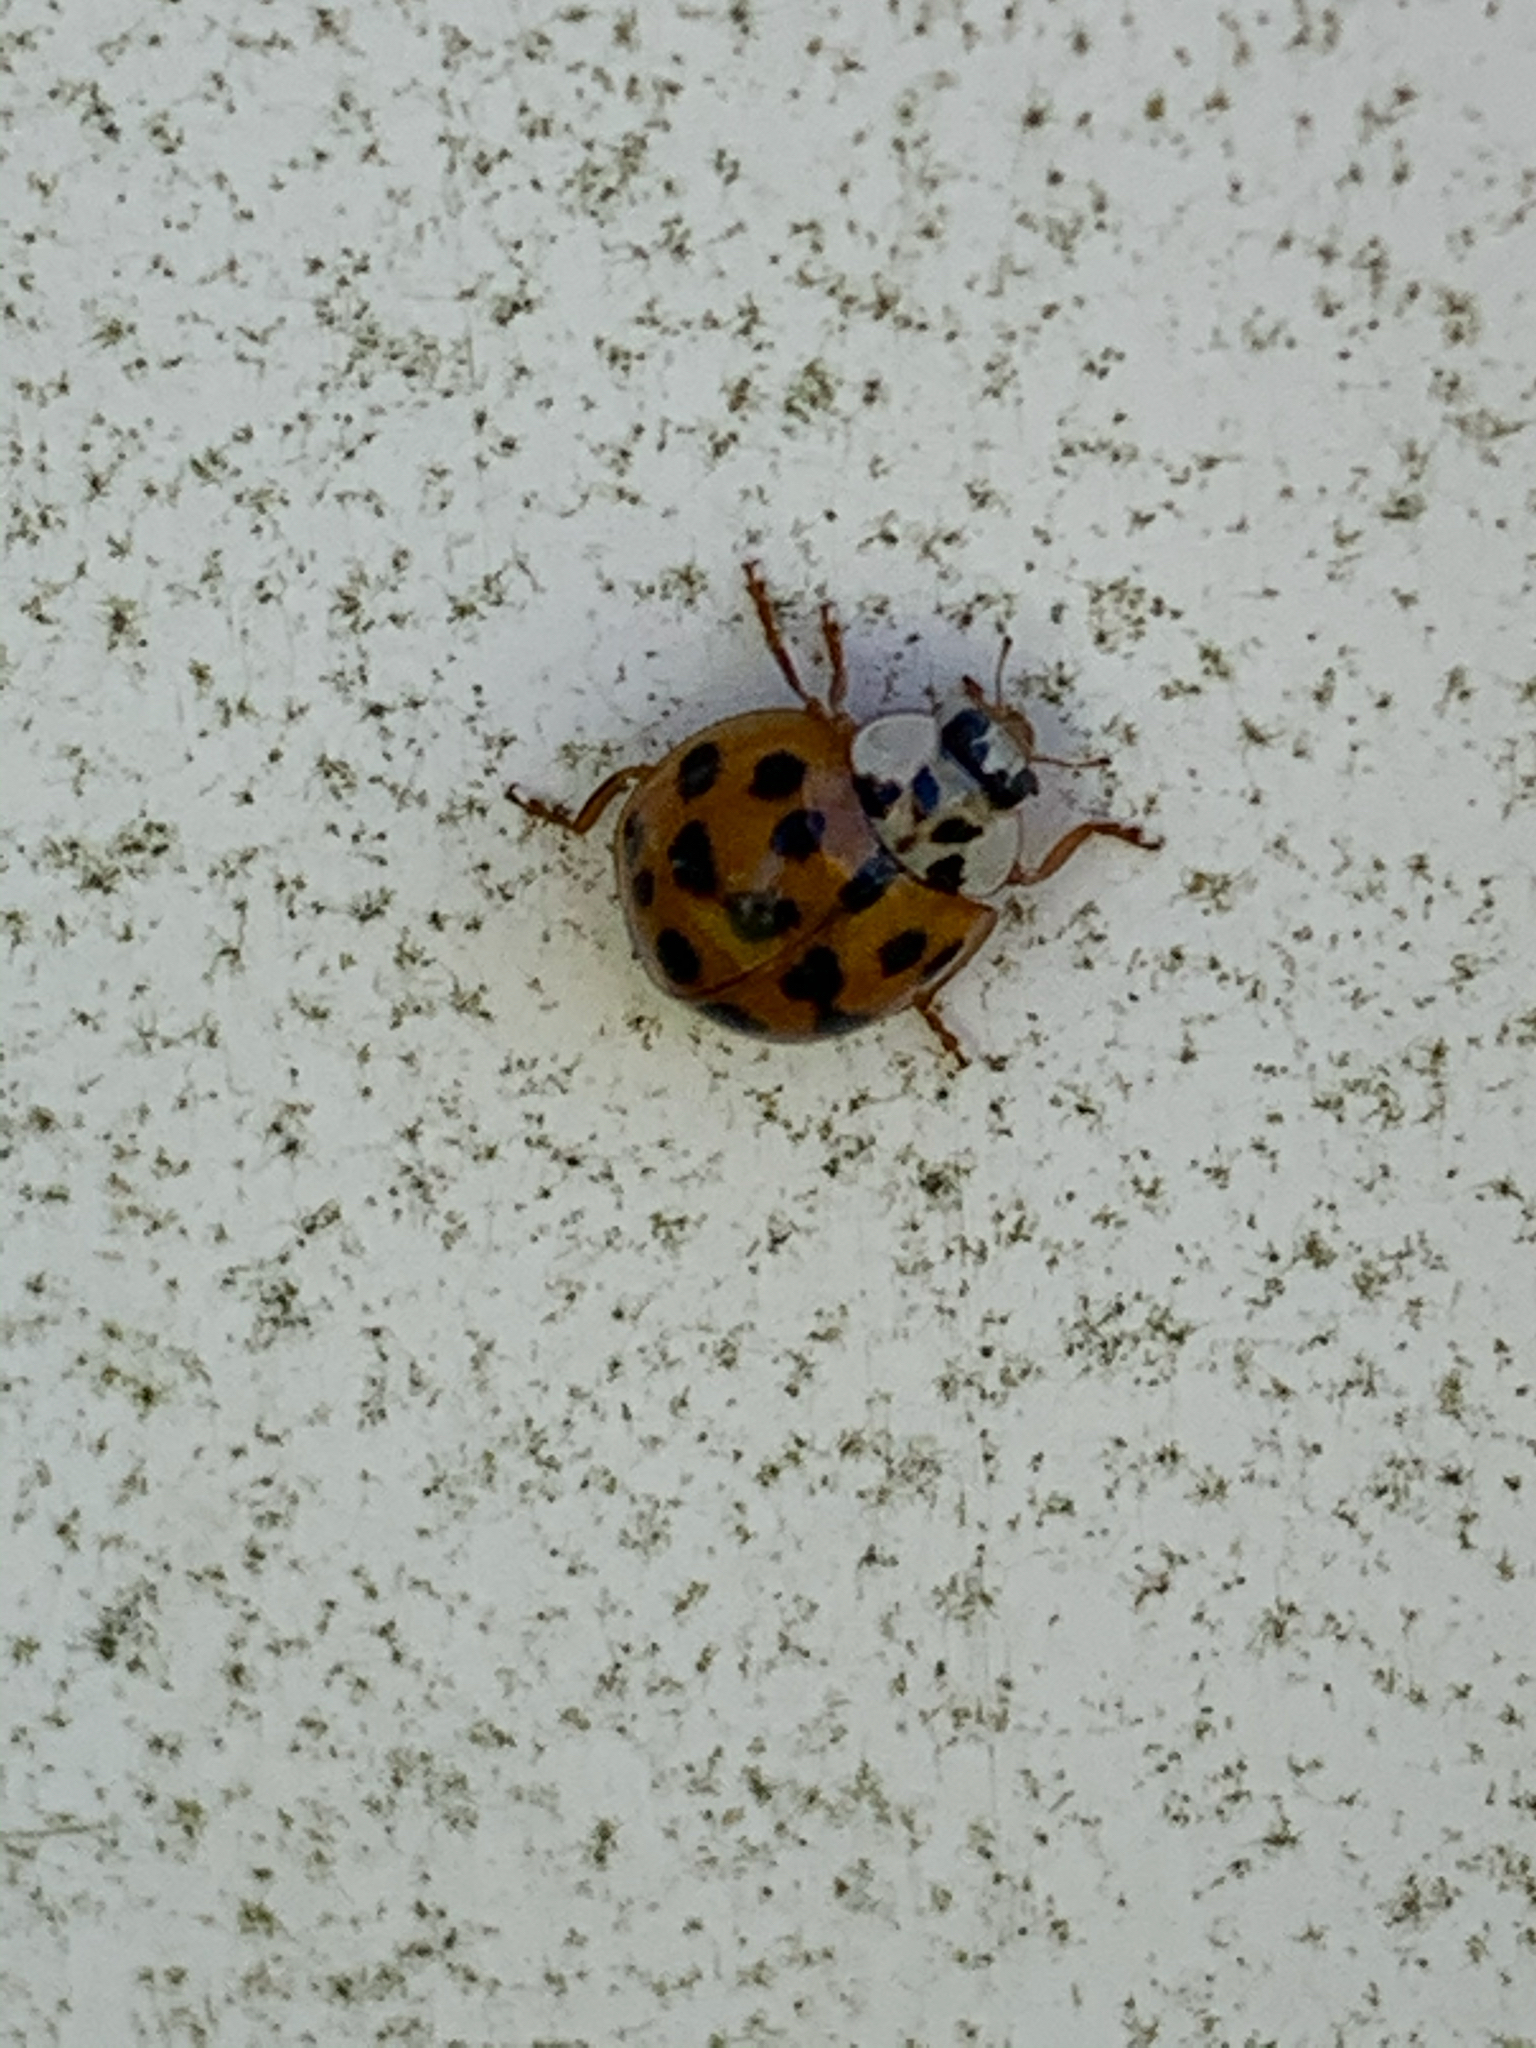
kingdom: Animalia
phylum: Arthropoda
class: Insecta
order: Coleoptera
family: Coccinellidae
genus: Harmonia
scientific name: Harmonia axyridis
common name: Harlequin ladybird
